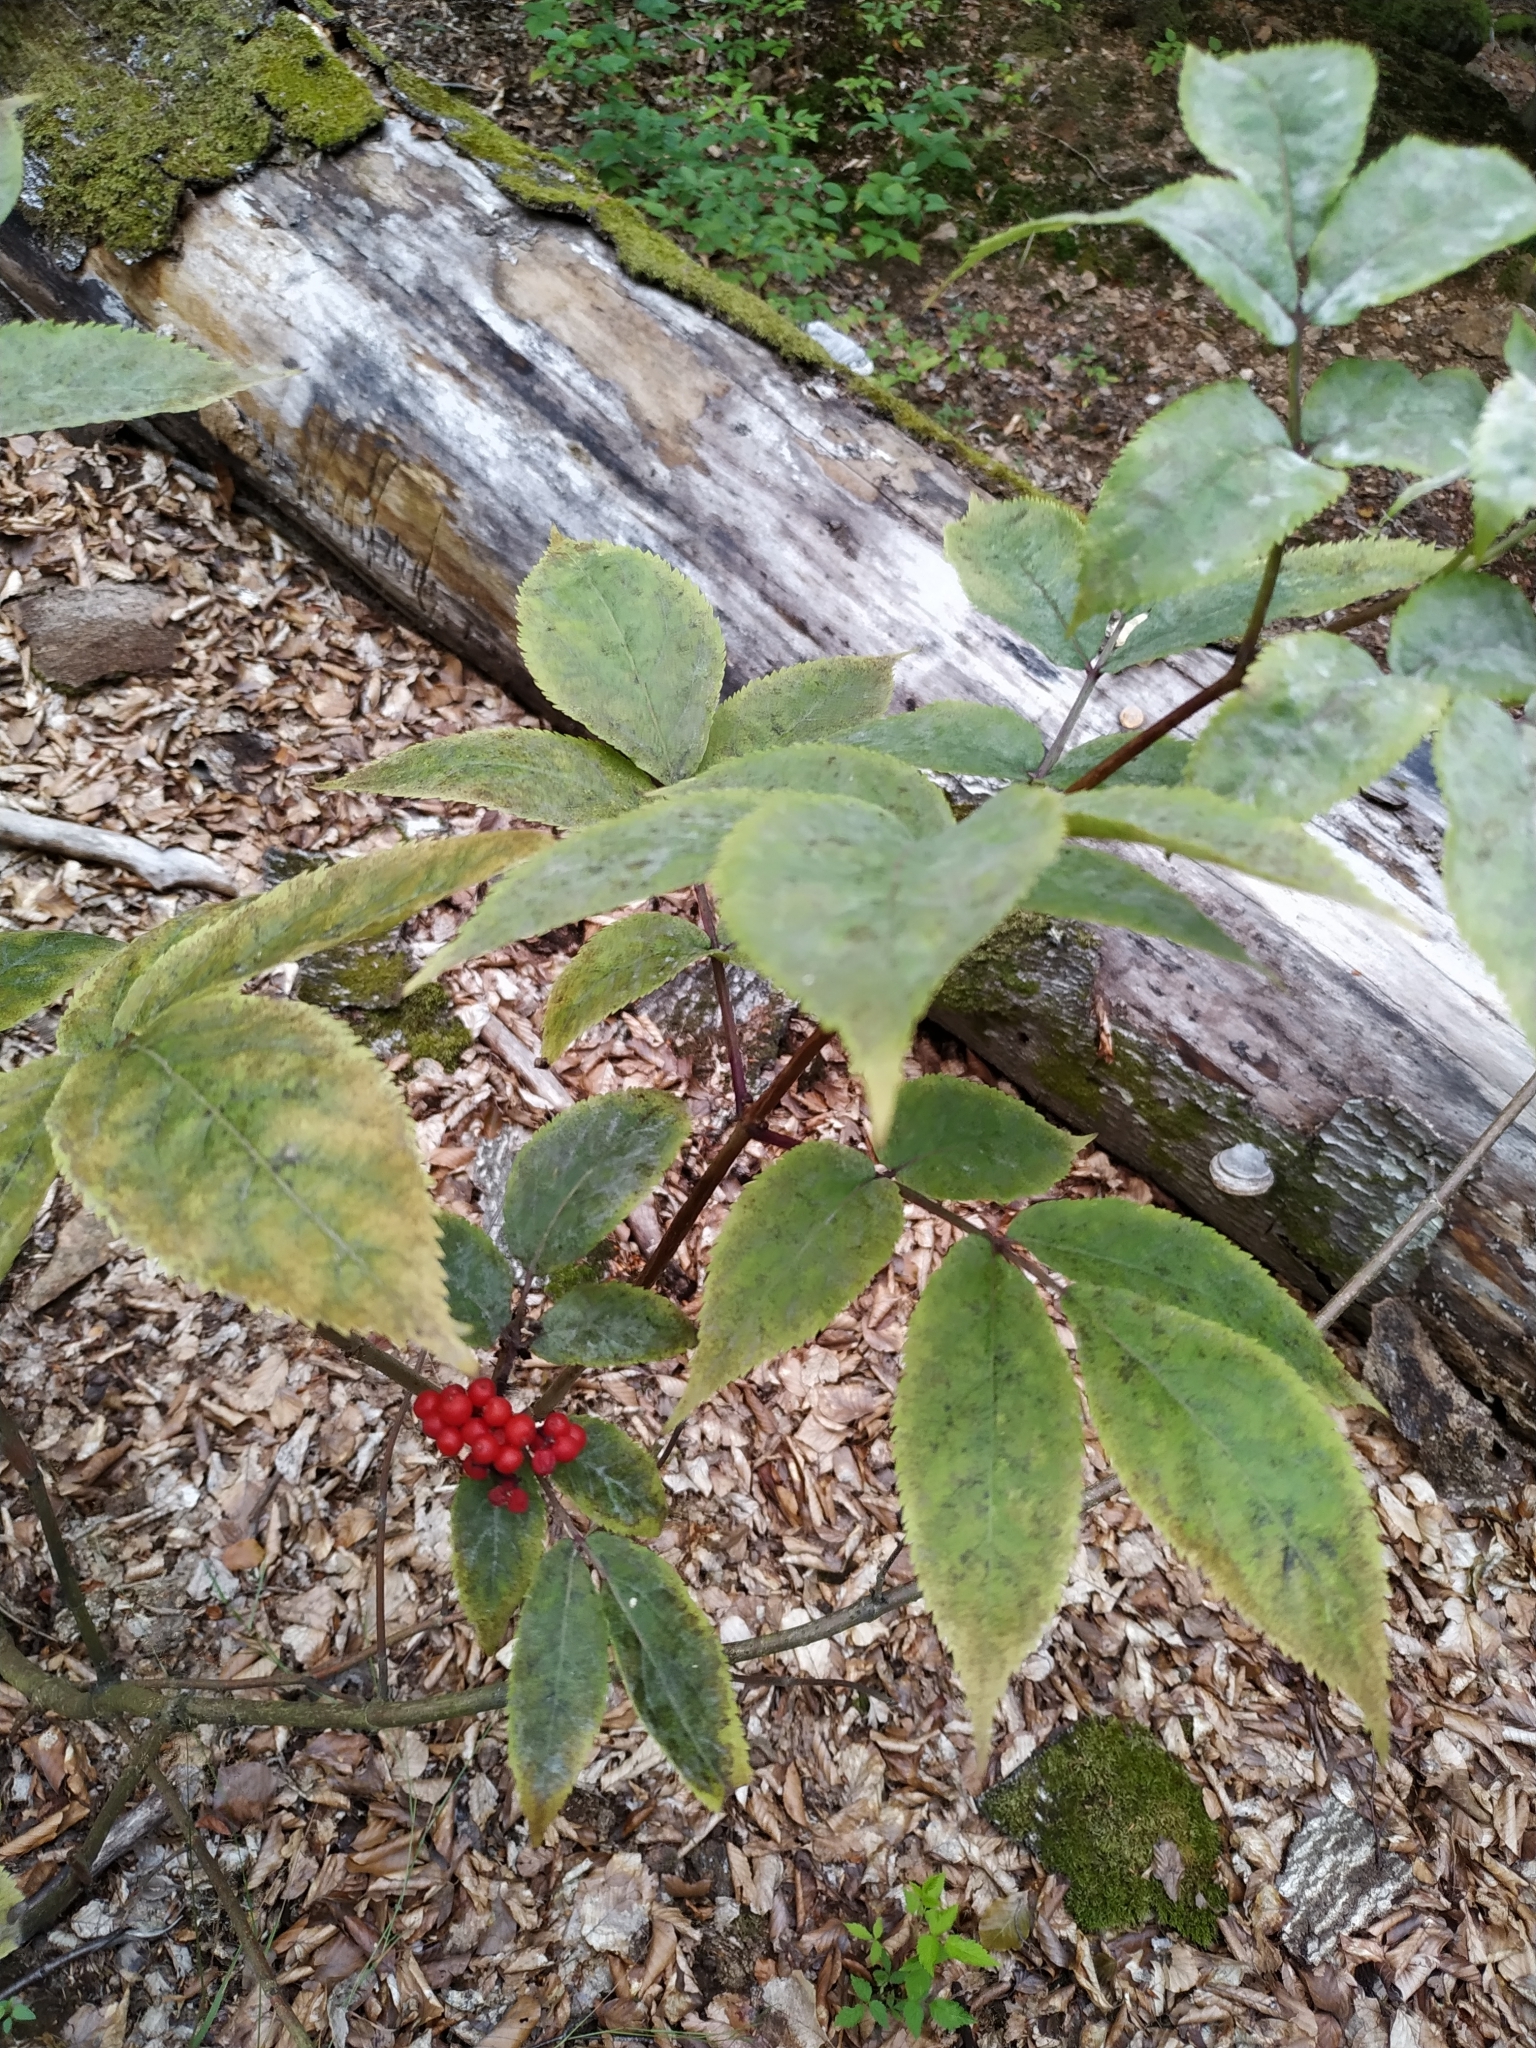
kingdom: Plantae
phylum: Tracheophyta
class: Magnoliopsida
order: Dipsacales
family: Viburnaceae
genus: Sambucus
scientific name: Sambucus racemosa
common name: Red-berried elder
